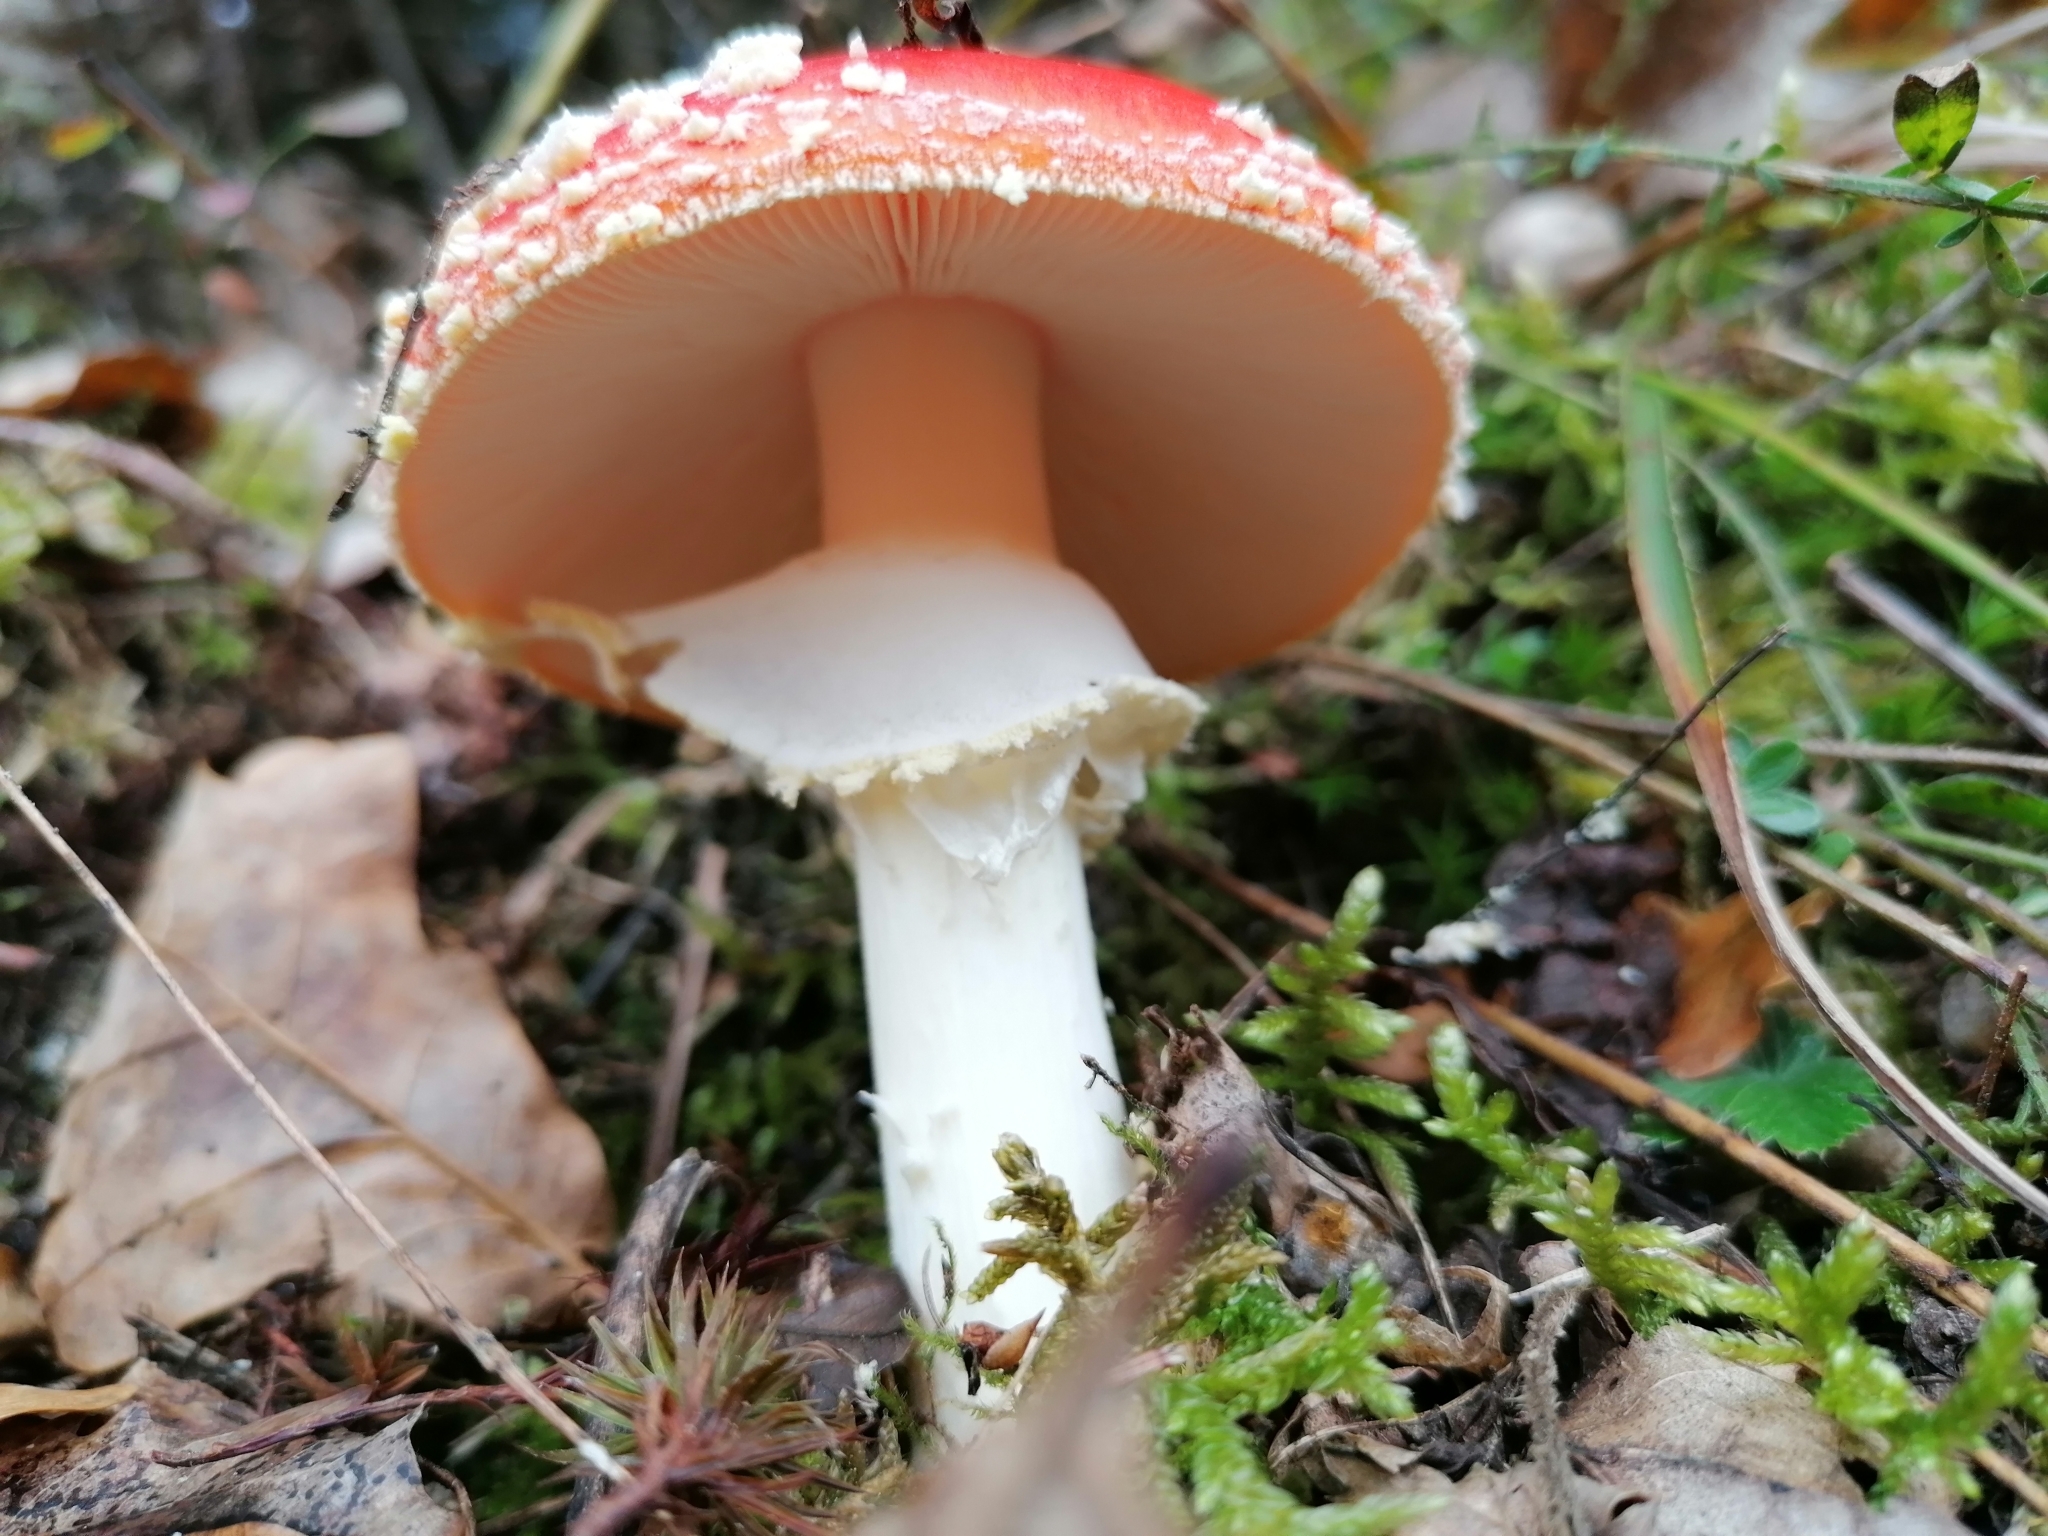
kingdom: Fungi
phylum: Basidiomycota
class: Agaricomycetes
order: Agaricales
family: Amanitaceae
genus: Amanita
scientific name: Amanita muscaria
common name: Fly agaric
